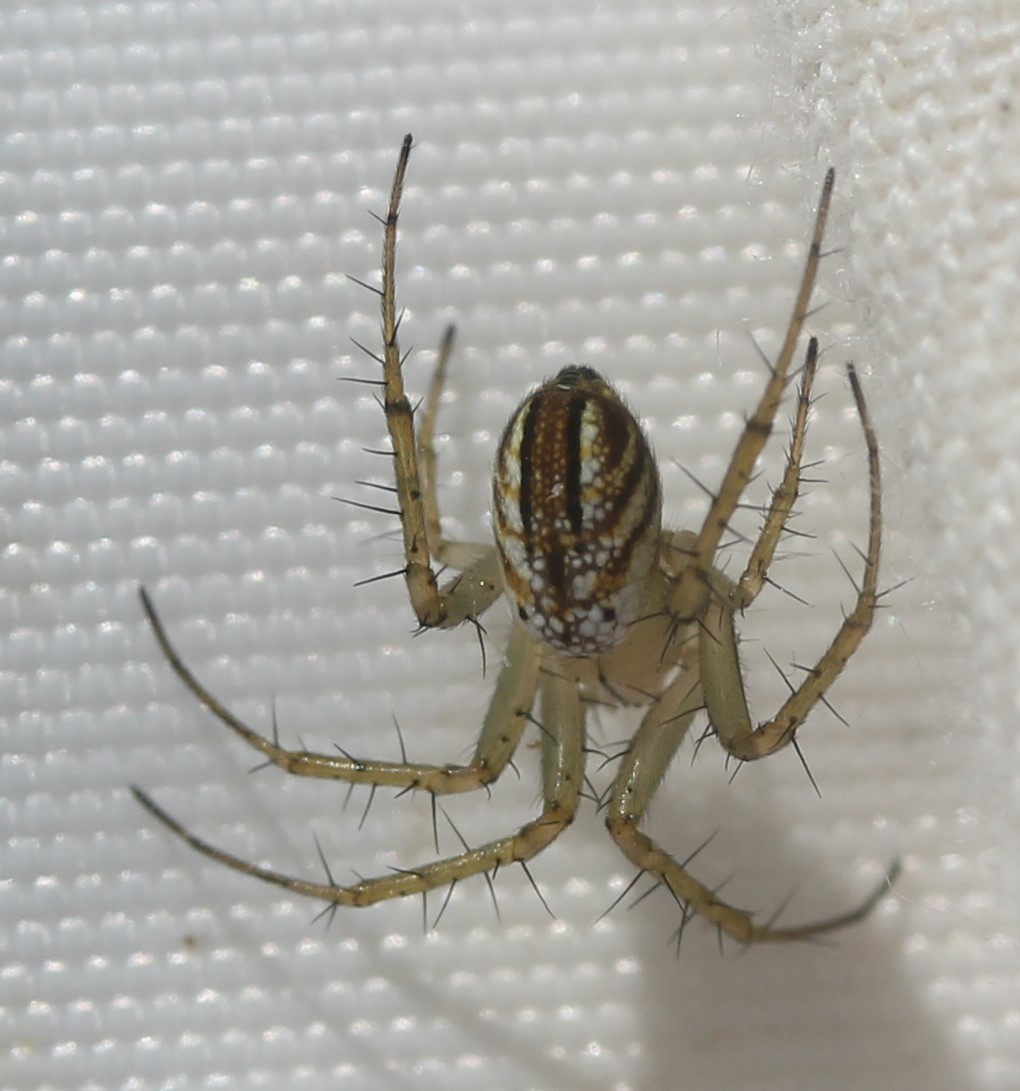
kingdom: Animalia
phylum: Arthropoda
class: Arachnida
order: Araneae
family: Araneidae
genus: Mangora
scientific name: Mangora gibberosa
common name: Lined orbweaver
